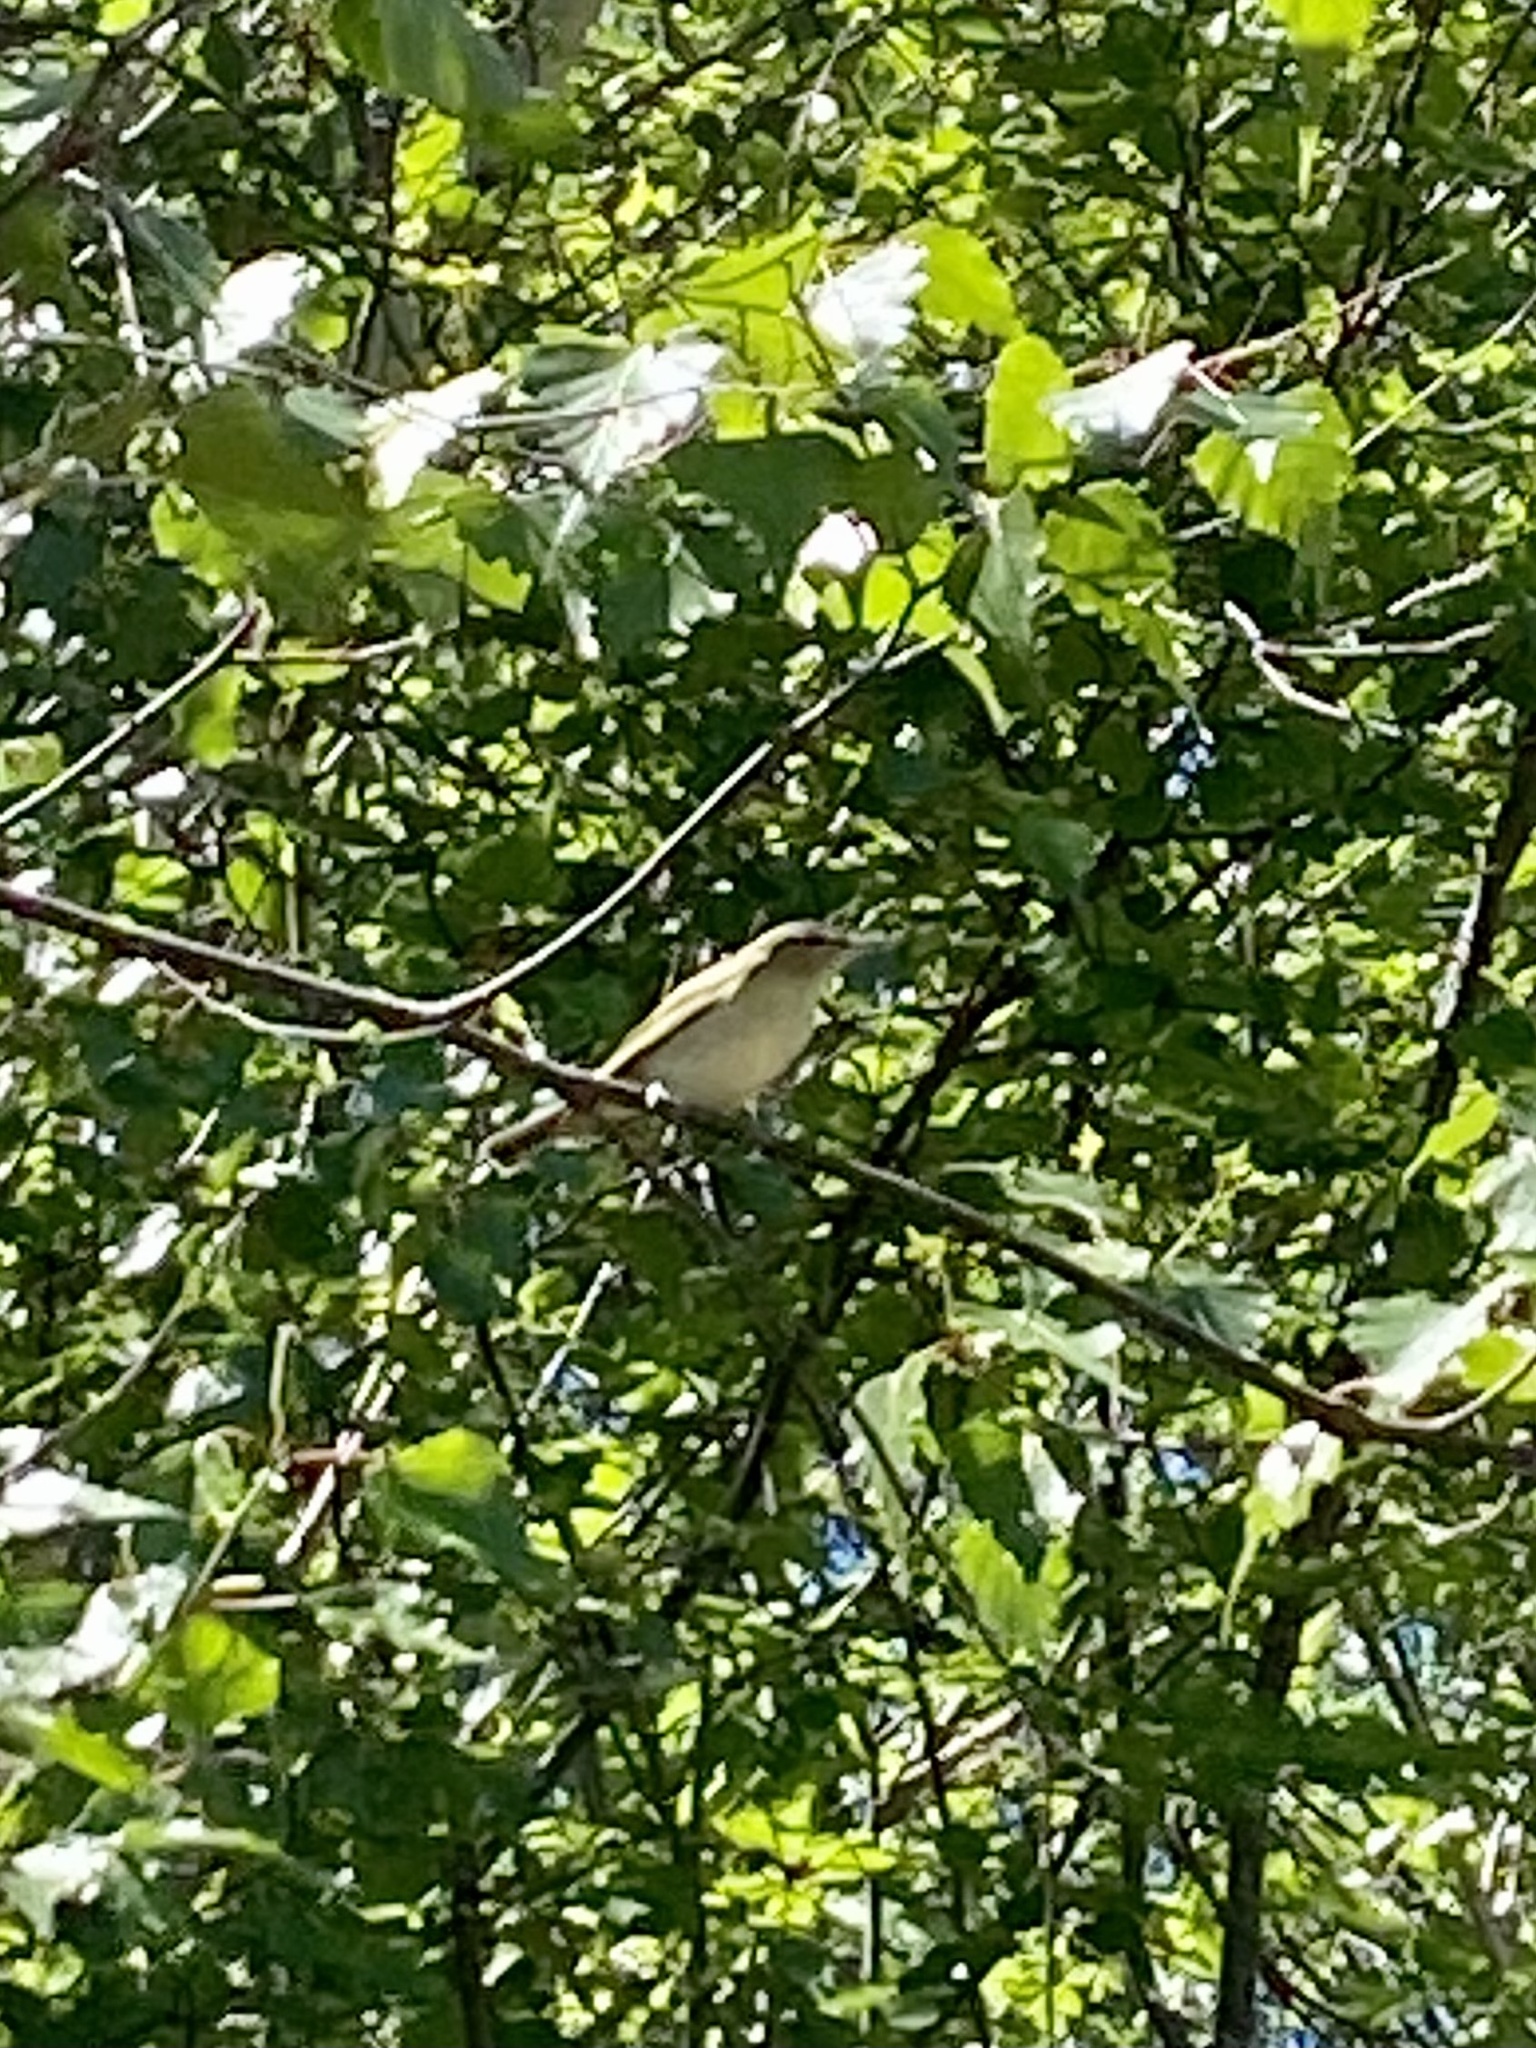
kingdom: Animalia
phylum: Chordata
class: Aves
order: Passeriformes
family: Vireonidae
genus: Vireo
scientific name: Vireo olivaceus
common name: Red-eyed vireo
